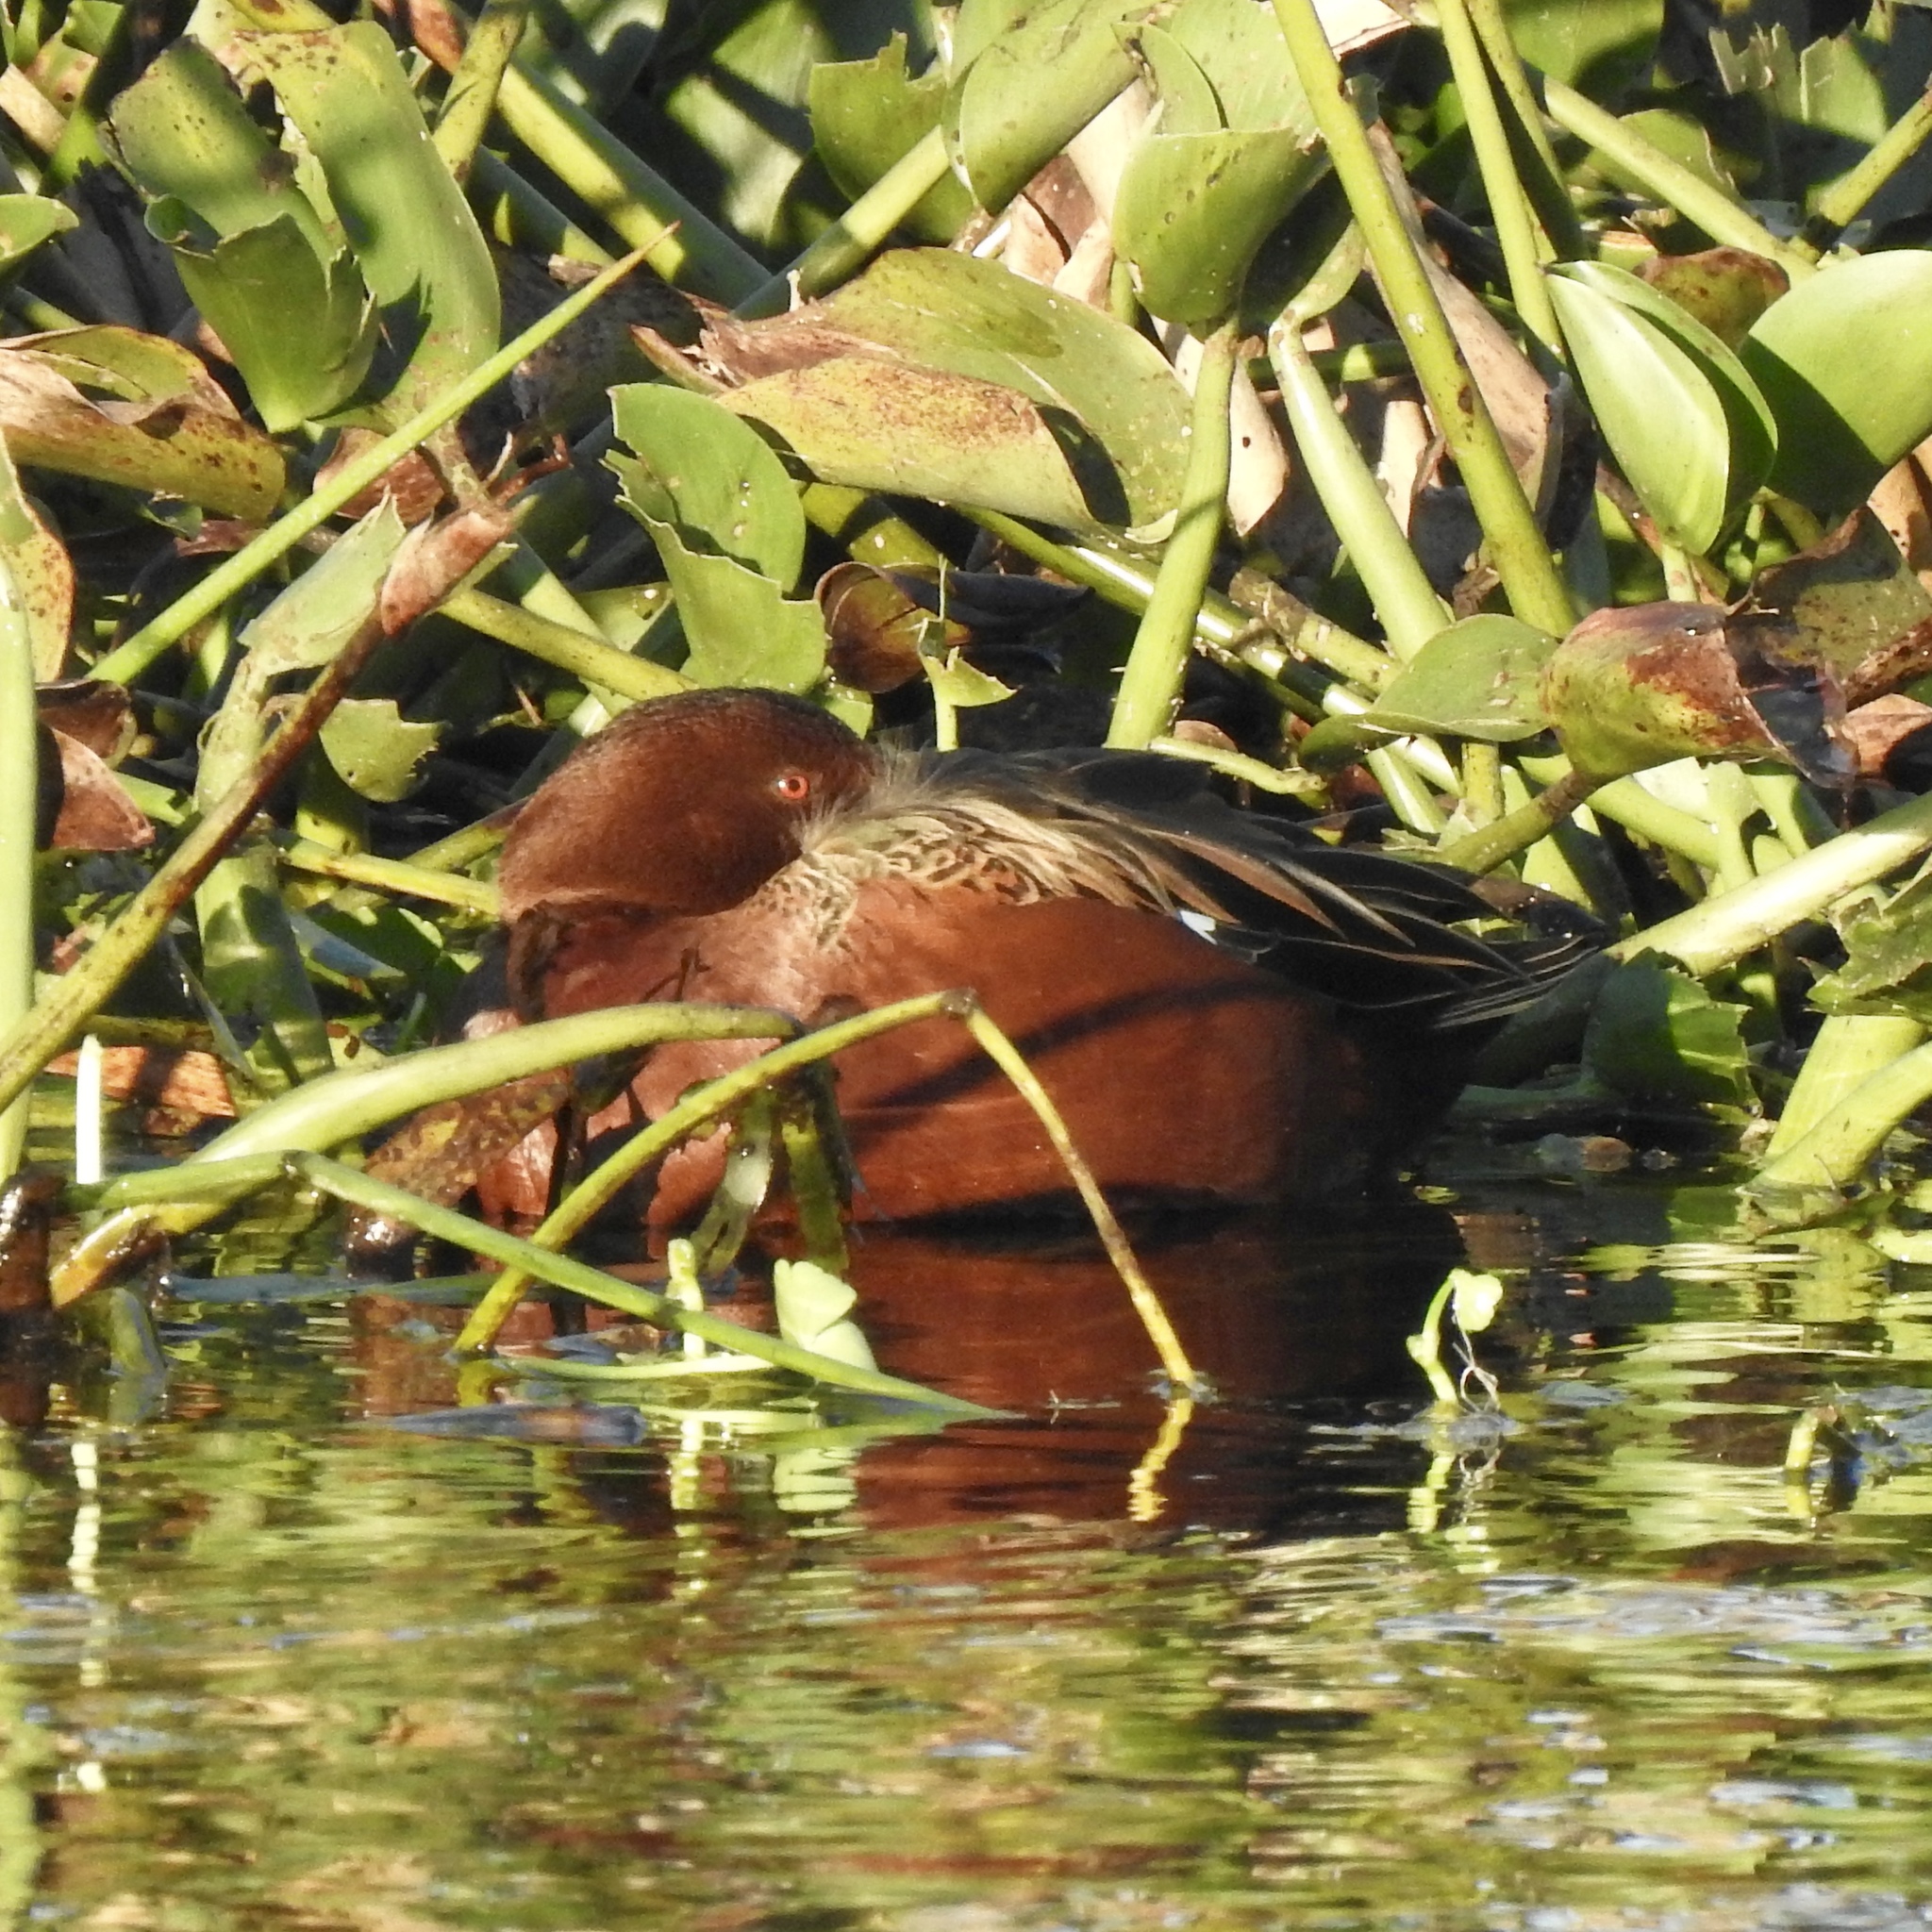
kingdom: Animalia
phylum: Chordata
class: Aves
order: Anseriformes
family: Anatidae
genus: Spatula
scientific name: Spatula cyanoptera
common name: Cinnamon teal
